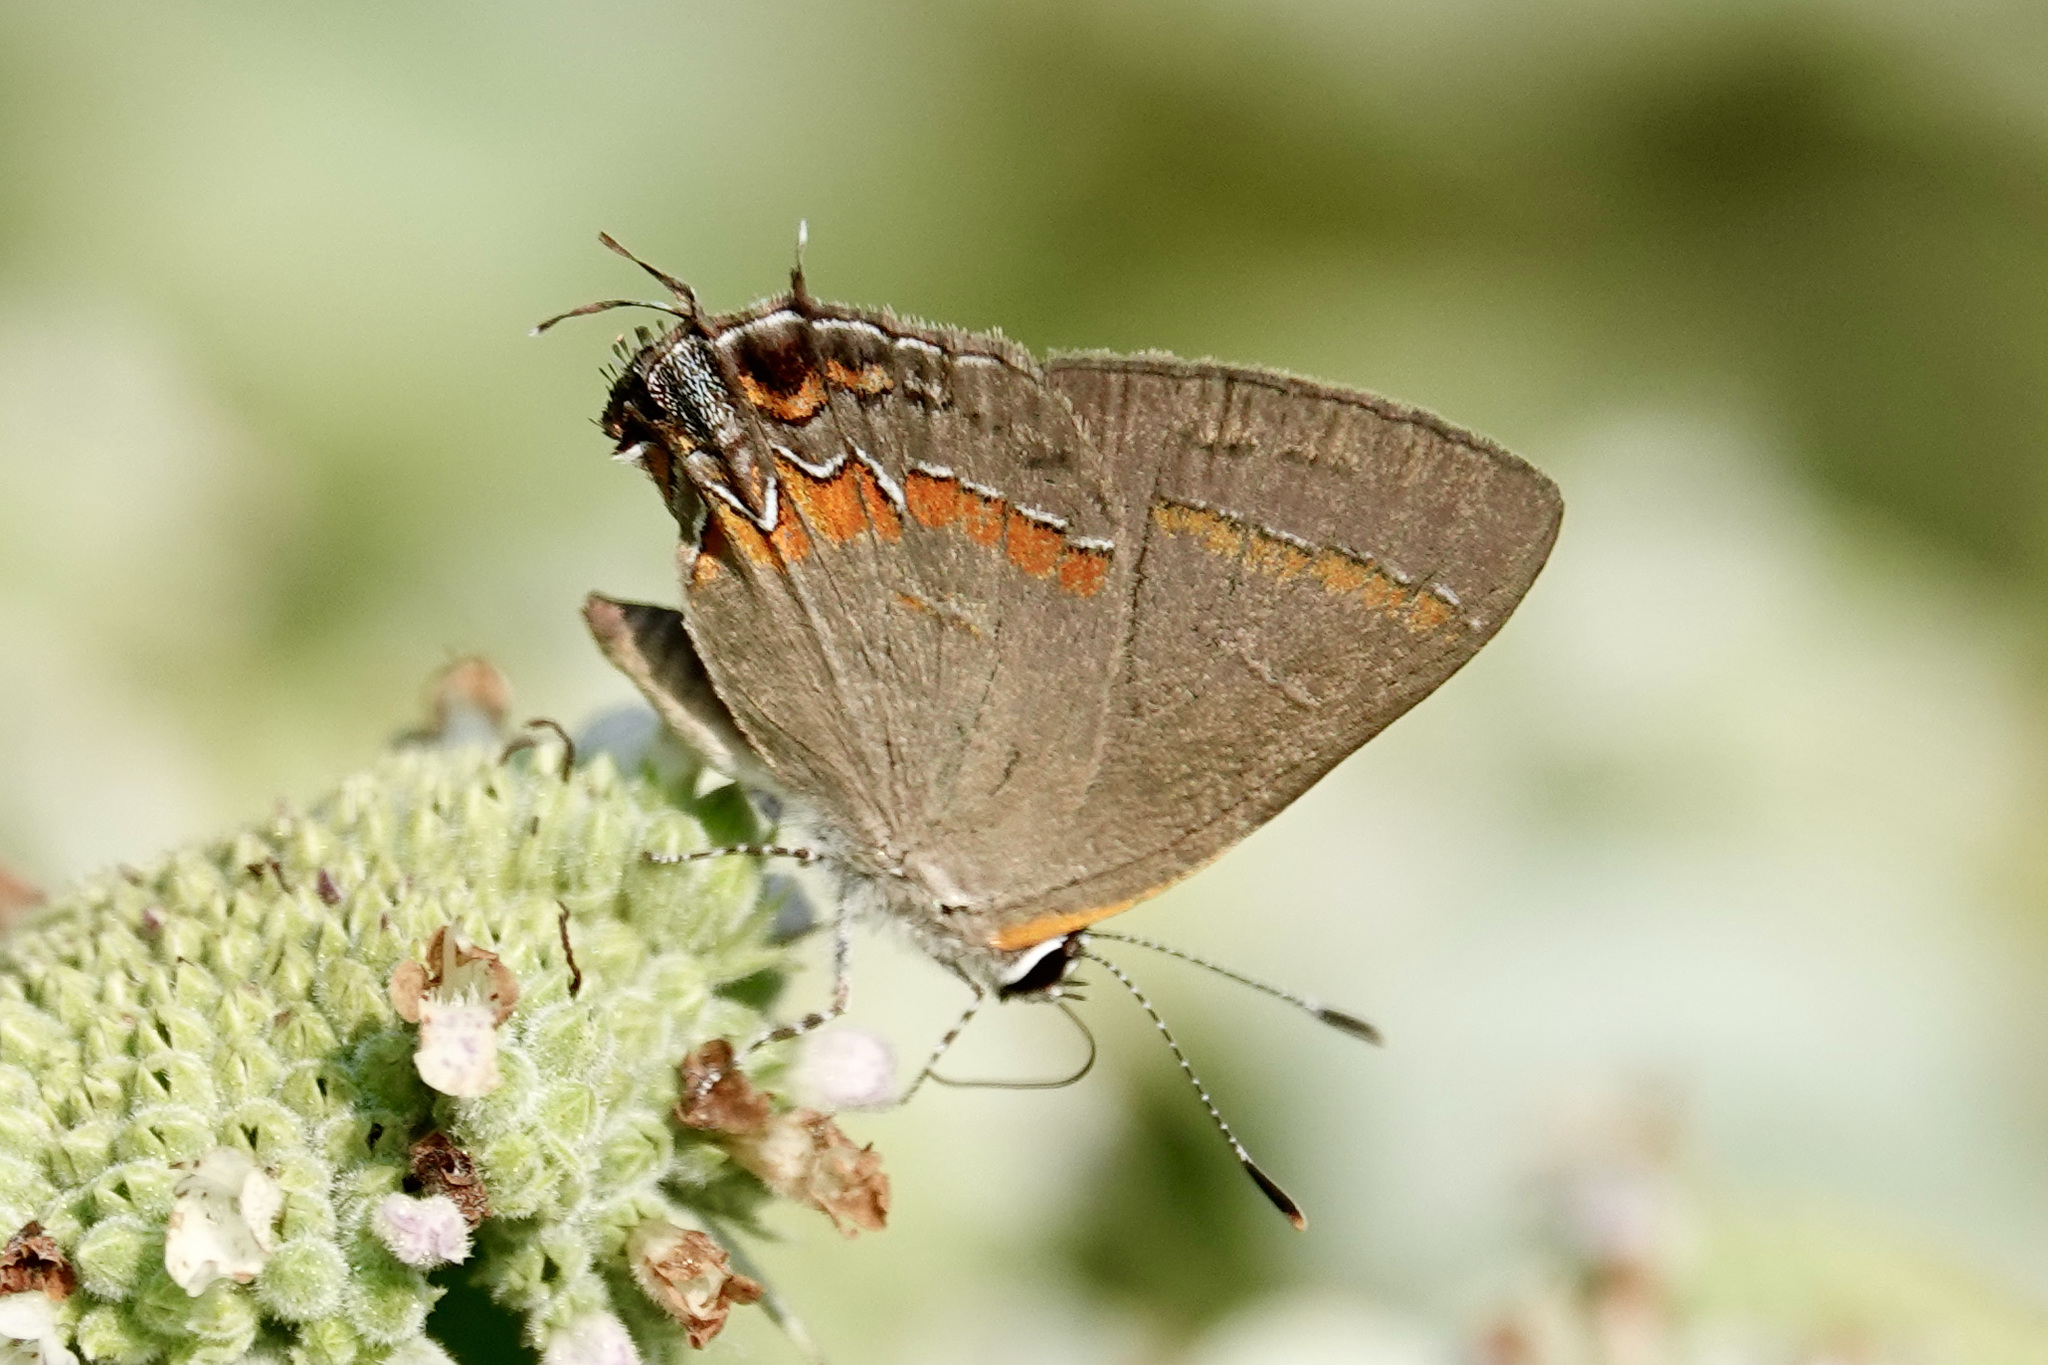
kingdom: Animalia
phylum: Arthropoda
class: Insecta
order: Lepidoptera
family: Lycaenidae
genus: Calycopis
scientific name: Calycopis cecrops
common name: Red-banded hairstreak
